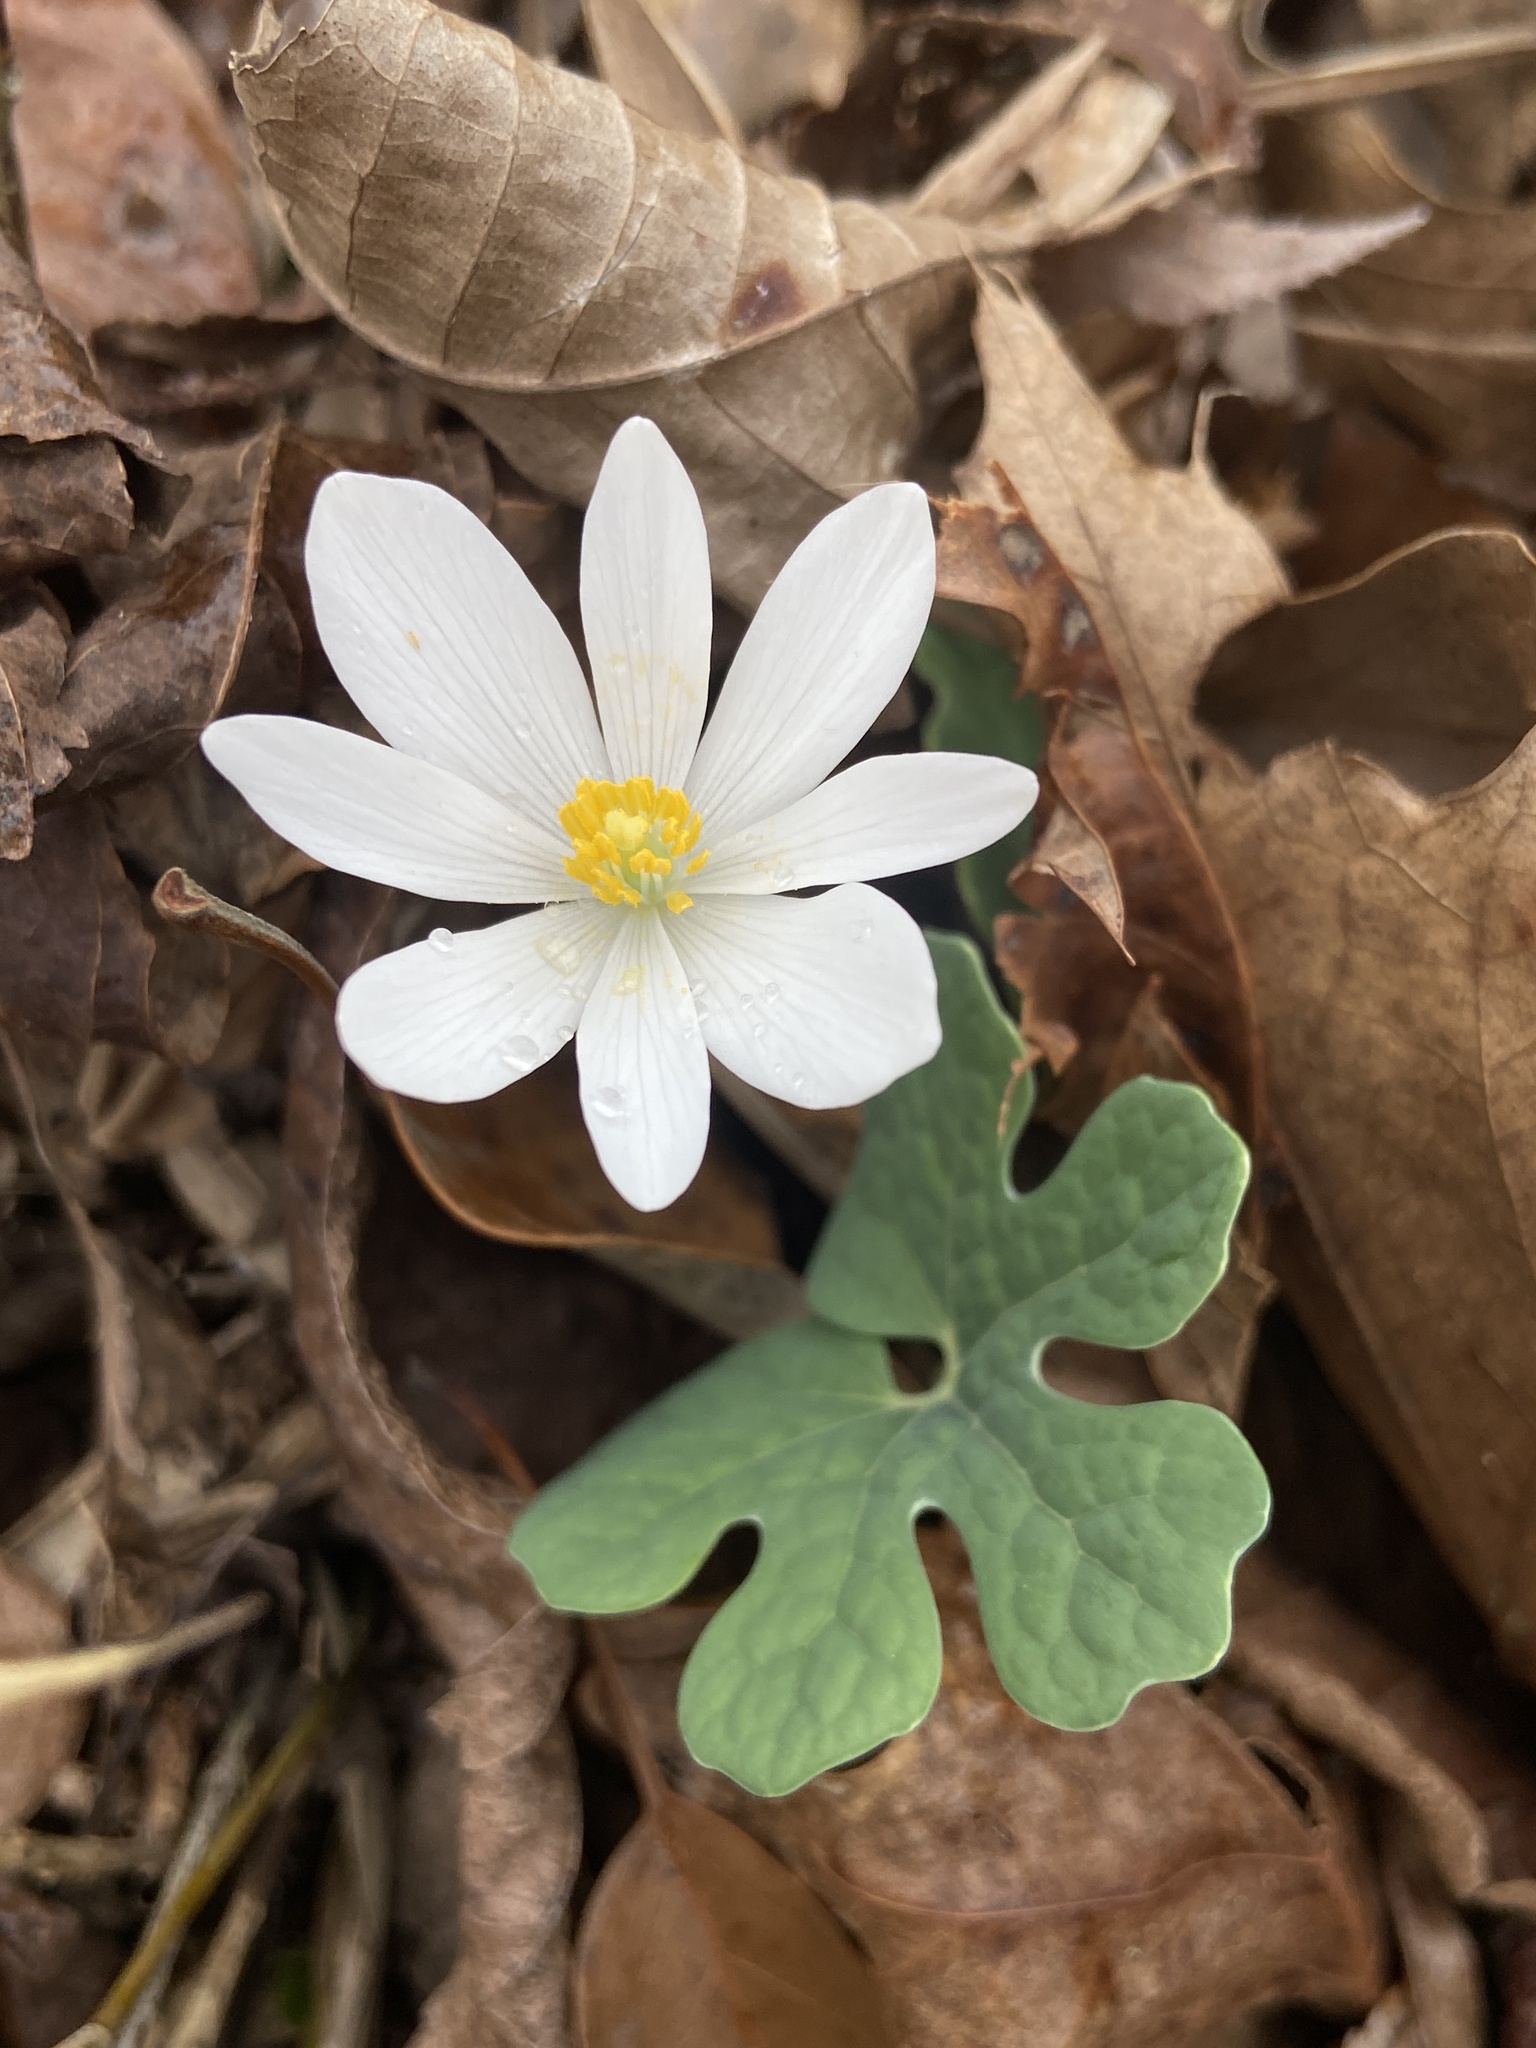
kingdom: Plantae
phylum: Tracheophyta
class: Magnoliopsida
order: Ranunculales
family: Papaveraceae
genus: Sanguinaria
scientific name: Sanguinaria canadensis
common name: Bloodroot
